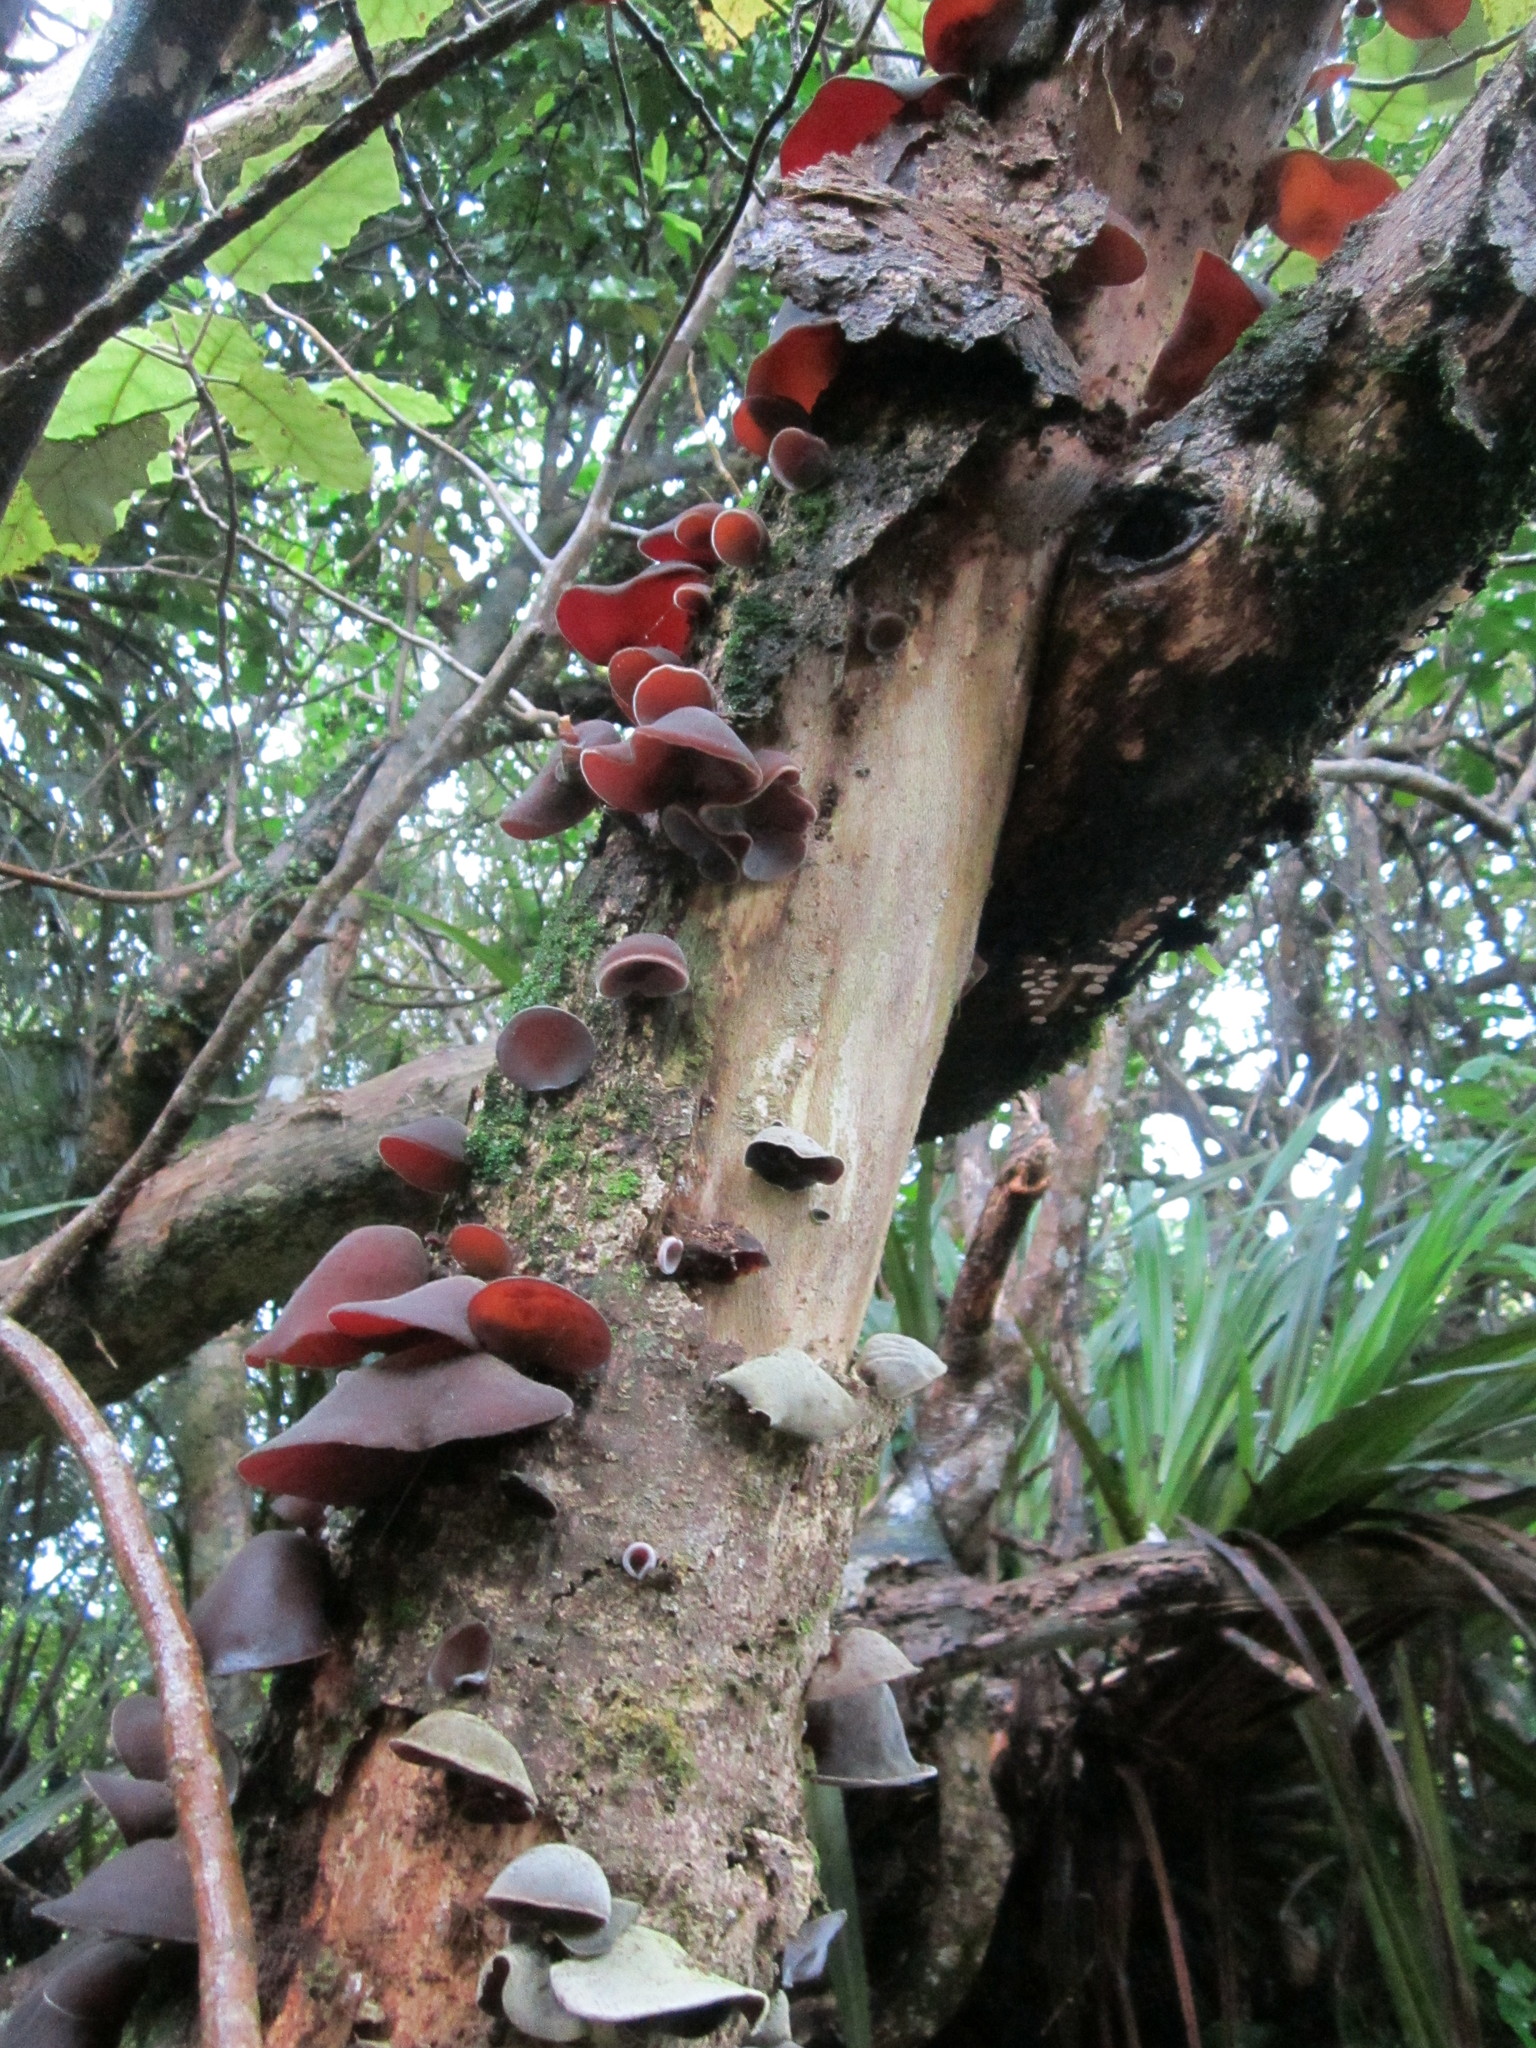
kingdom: Fungi
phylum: Basidiomycota
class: Agaricomycetes
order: Auriculariales
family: Auriculariaceae
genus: Auricularia
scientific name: Auricularia cornea
